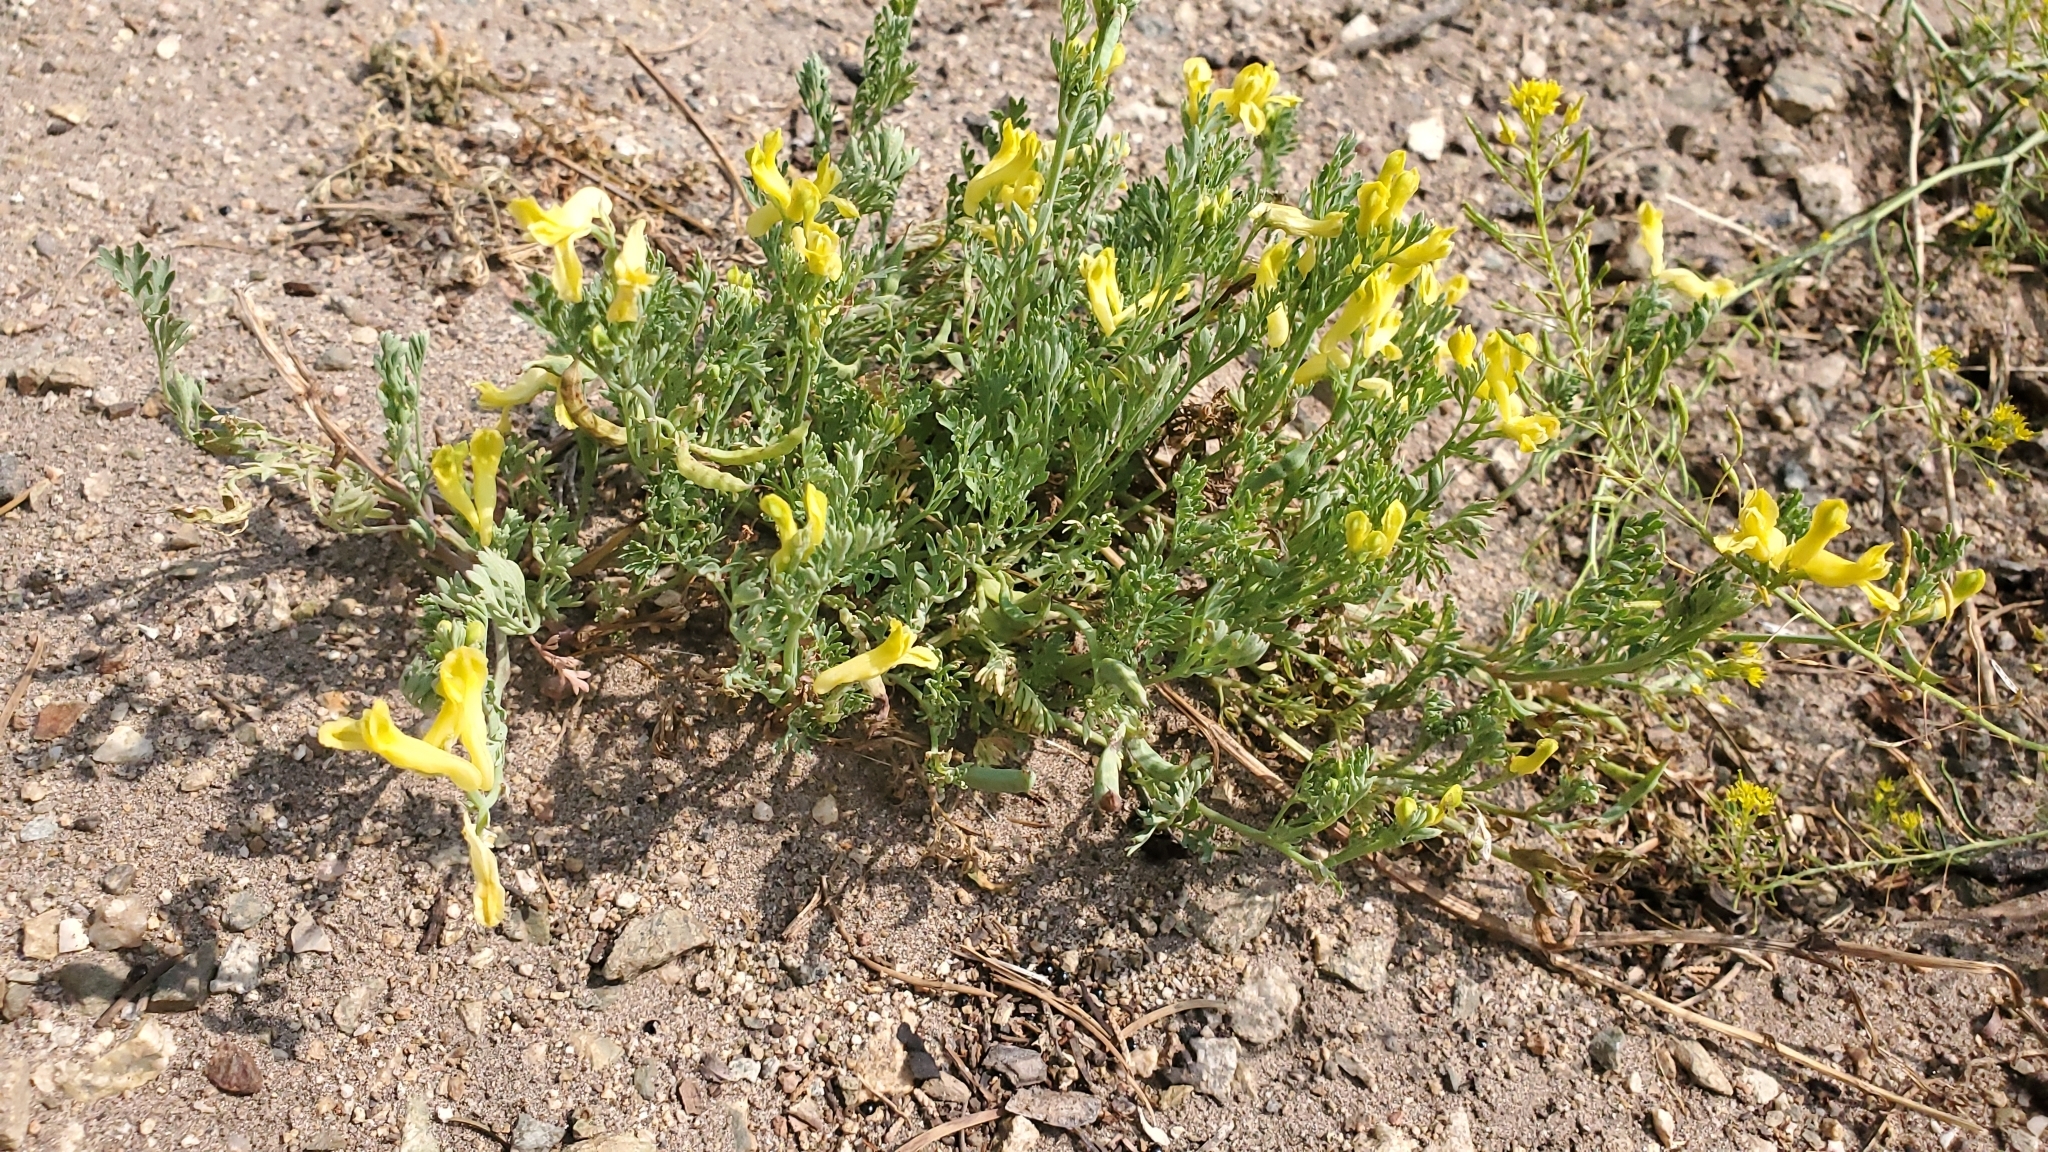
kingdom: Plantae
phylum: Tracheophyta
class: Magnoliopsida
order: Ranunculales
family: Papaveraceae
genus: Corydalis
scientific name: Corydalis aurea
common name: Golden corydalis
